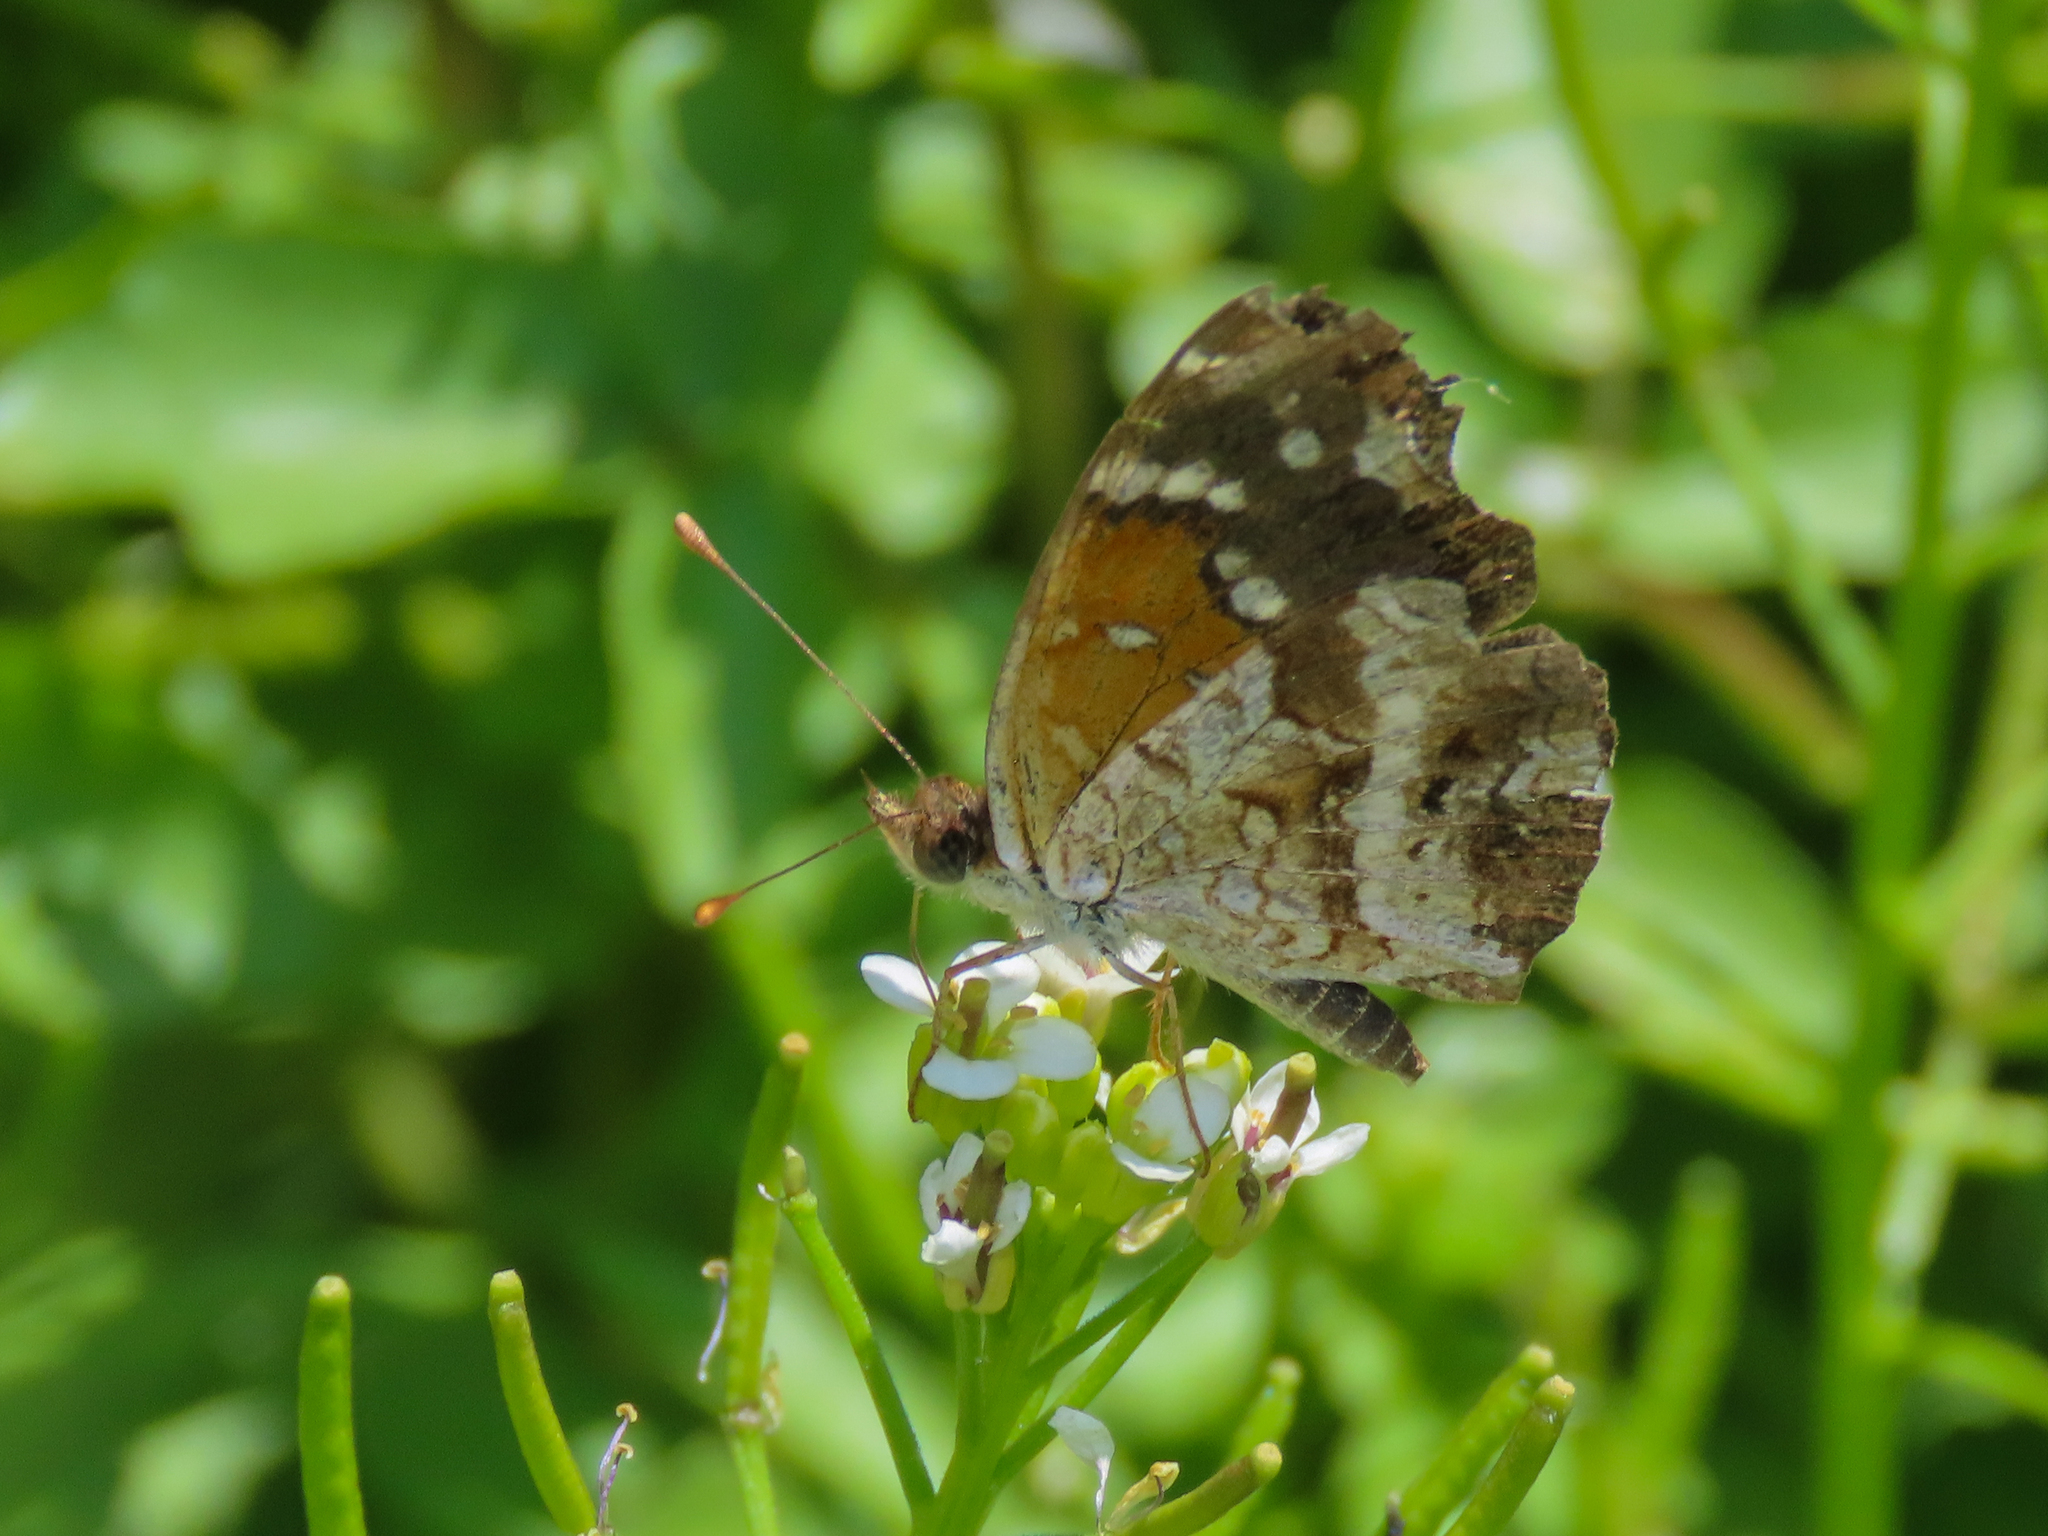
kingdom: Animalia
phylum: Arthropoda
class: Insecta
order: Lepidoptera
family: Nymphalidae
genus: Anthanassa
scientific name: Anthanassa texana
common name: Texan crescent
